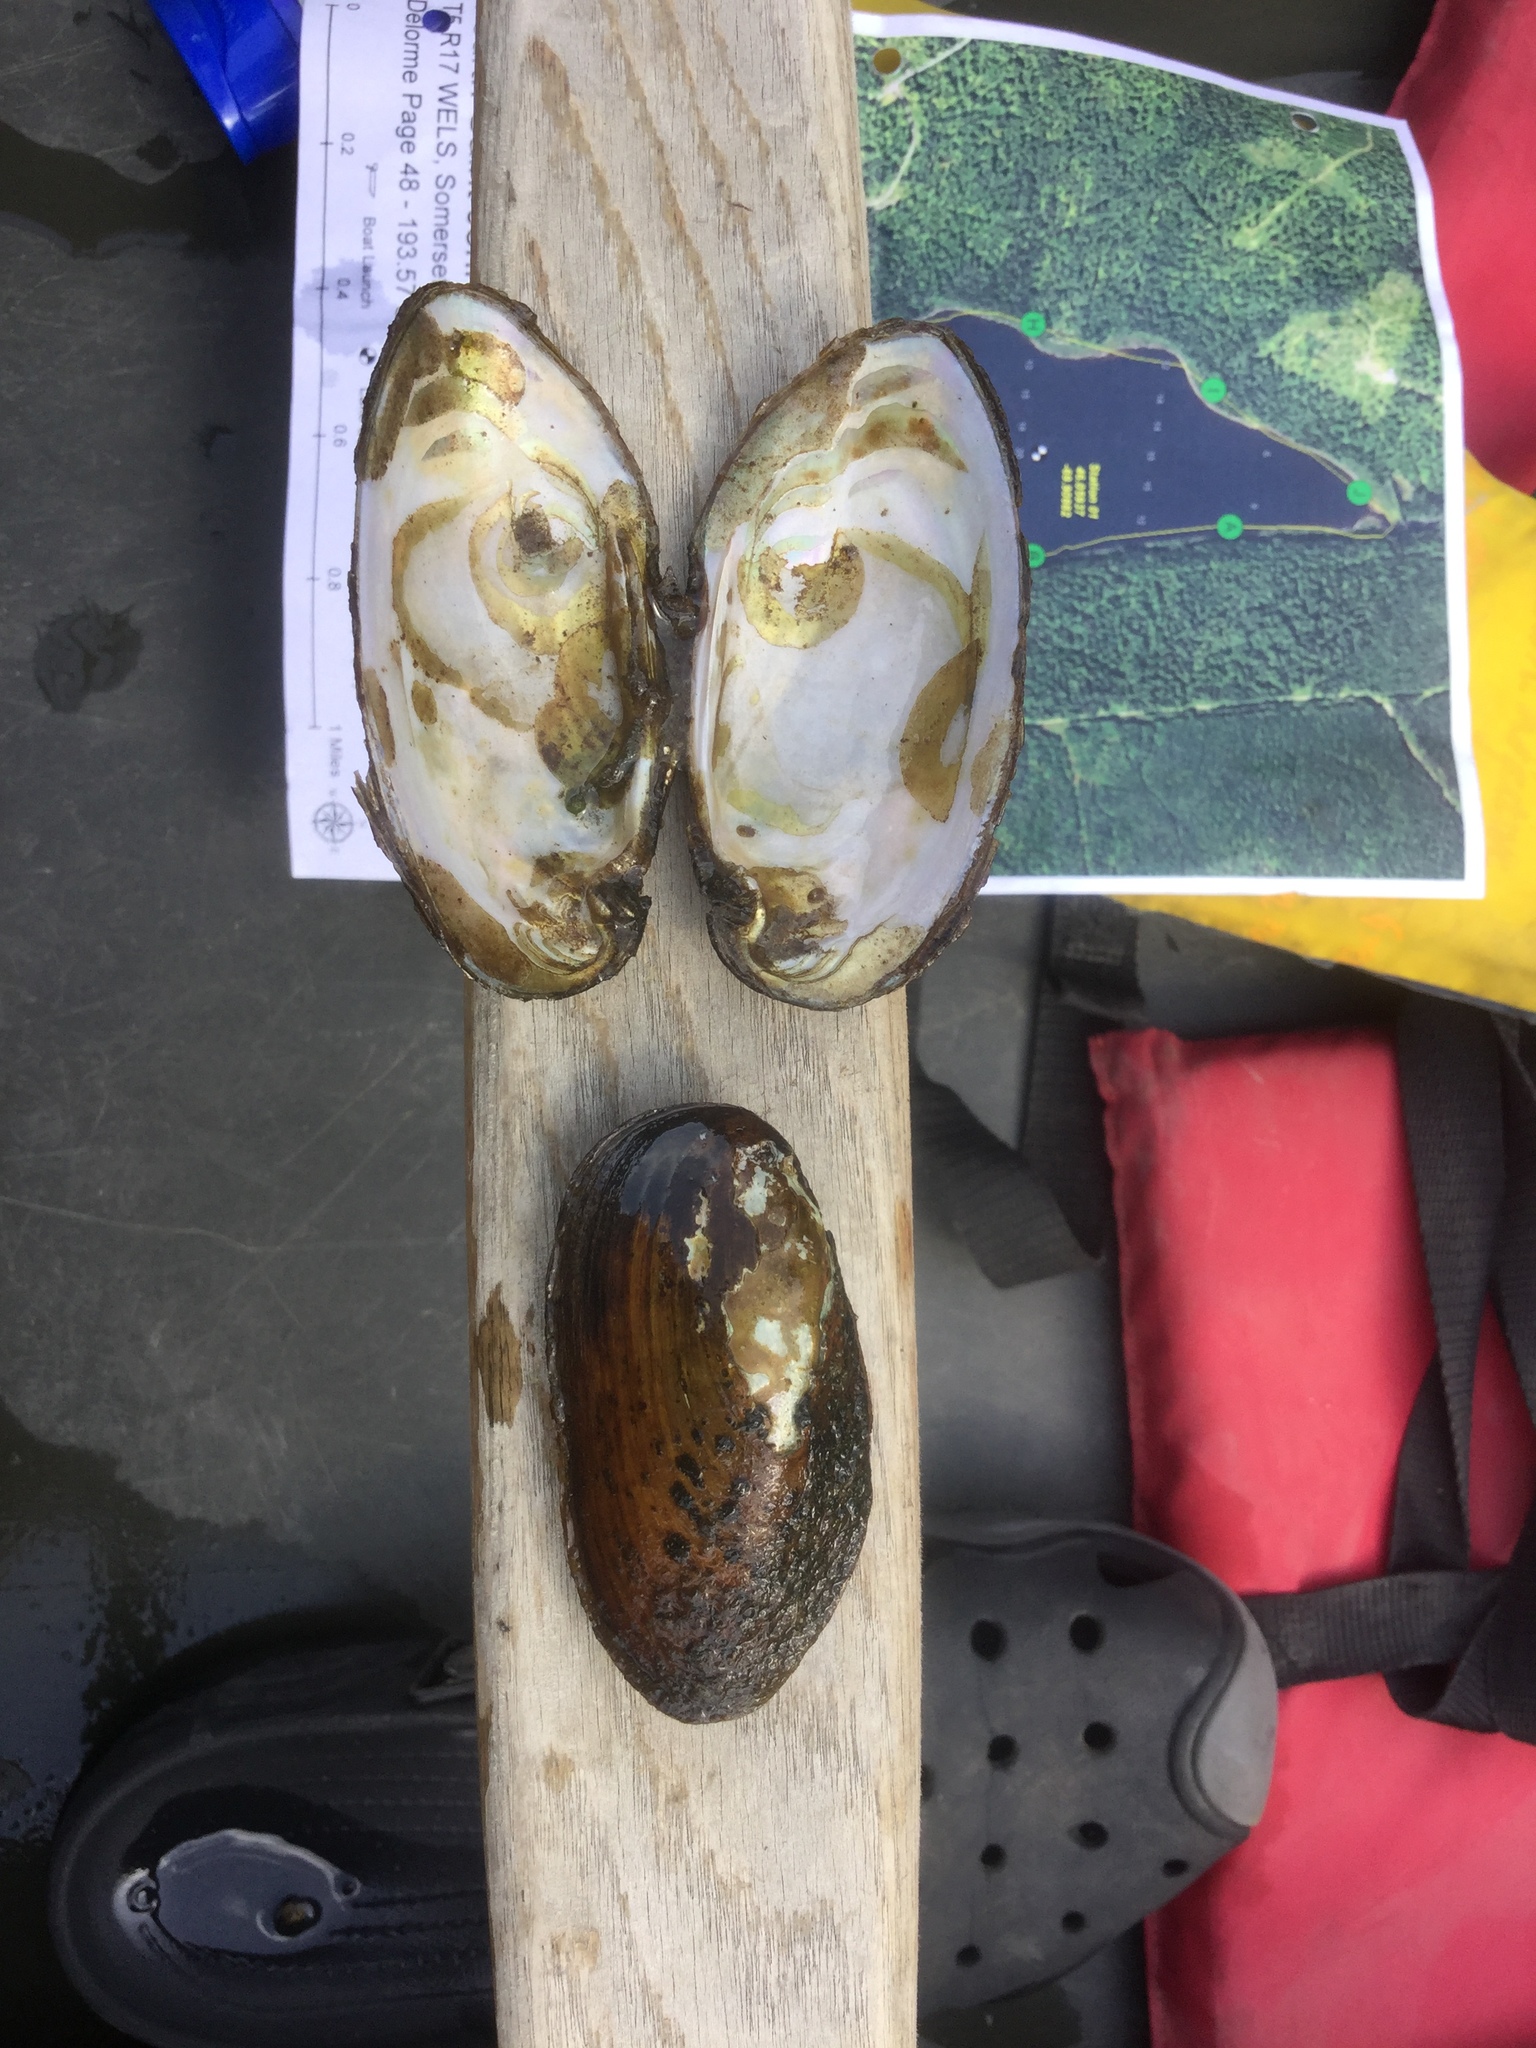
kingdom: Animalia
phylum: Mollusca
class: Bivalvia
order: Unionida
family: Unionidae
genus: Elliptio
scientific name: Elliptio complanata
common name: Eastern elliptio
